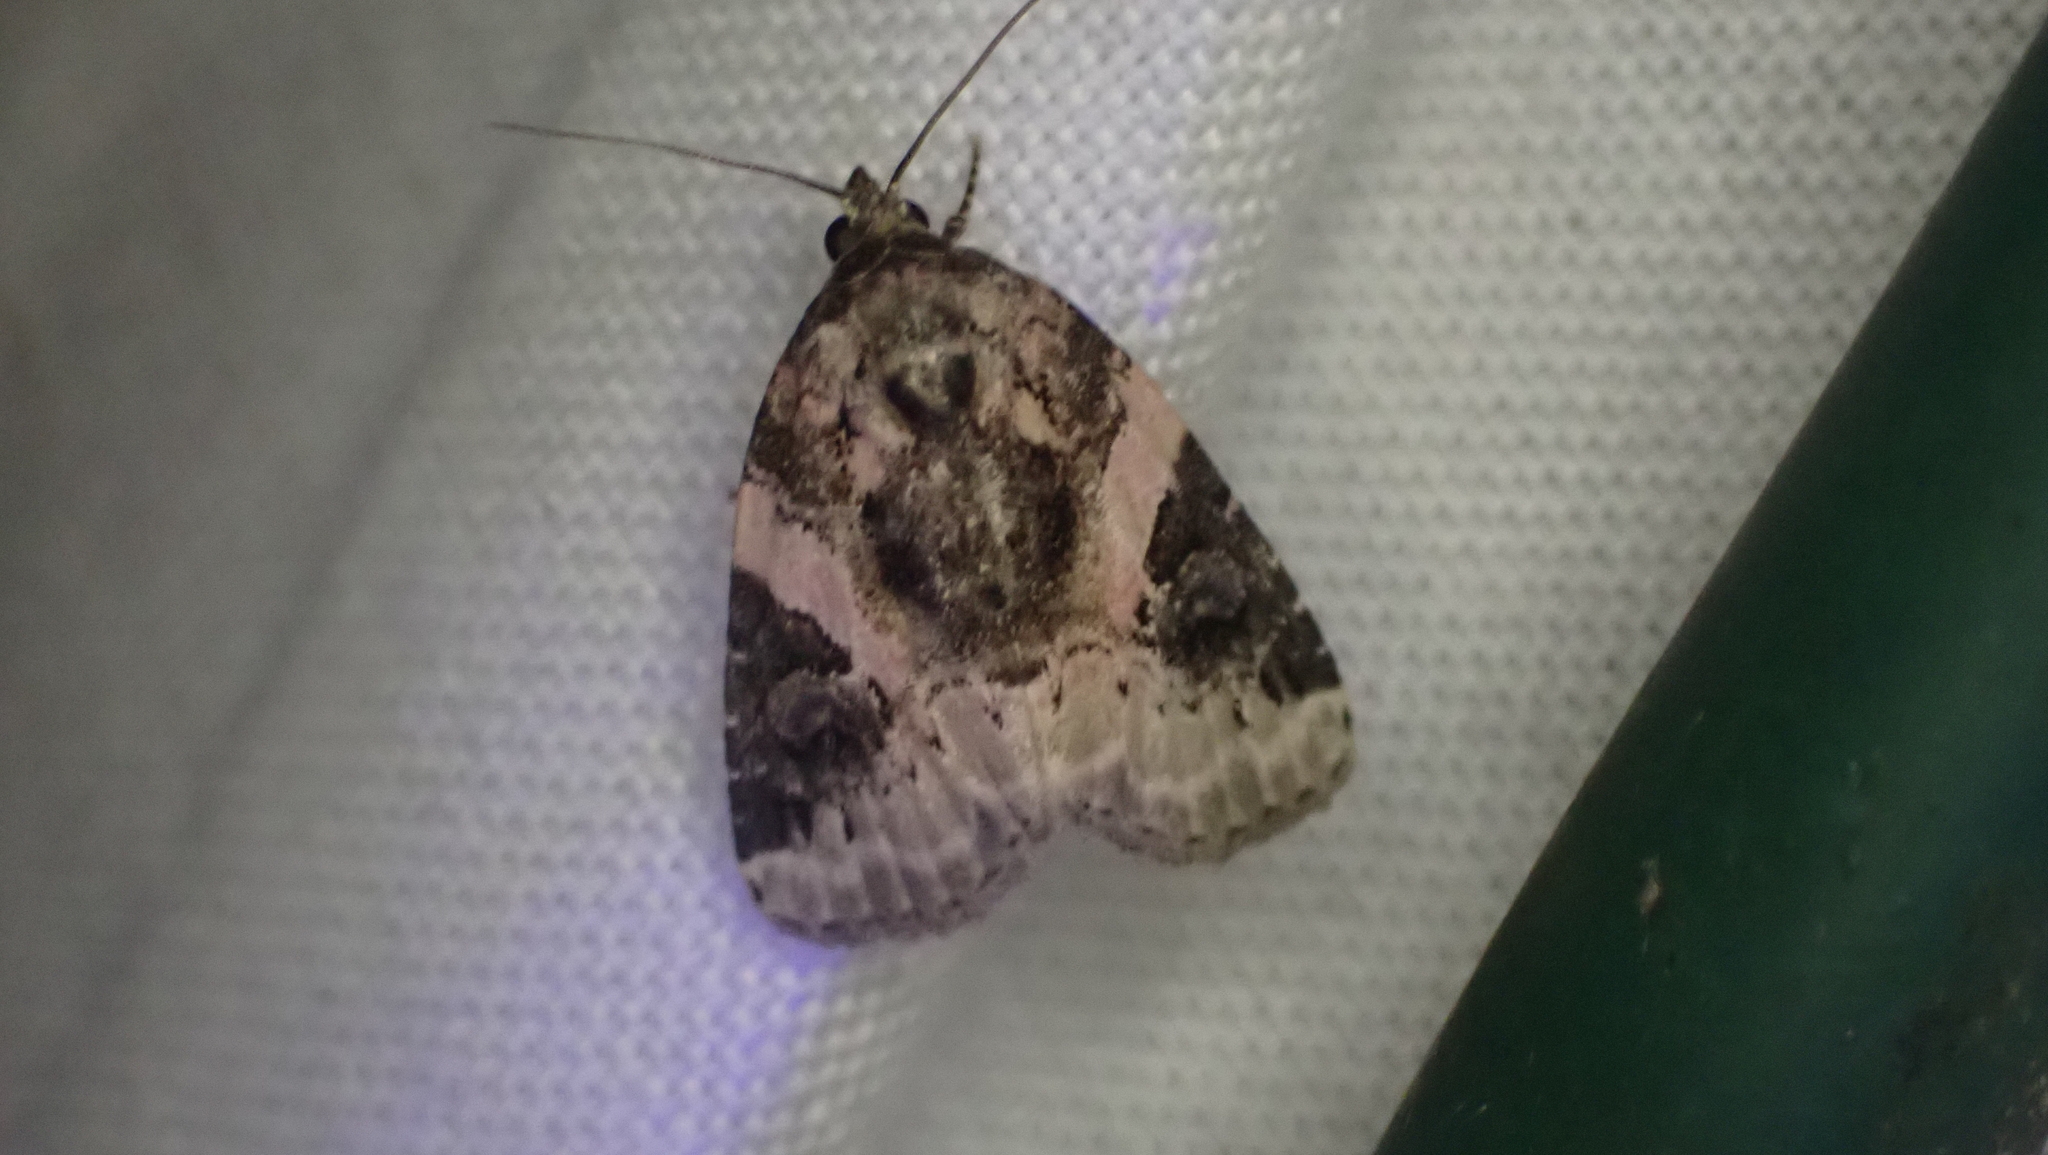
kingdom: Animalia
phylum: Arthropoda
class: Insecta
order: Lepidoptera
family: Noctuidae
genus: Pseudeustrotia
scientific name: Pseudeustrotia carneola
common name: Pink-barred lithacodia moth
